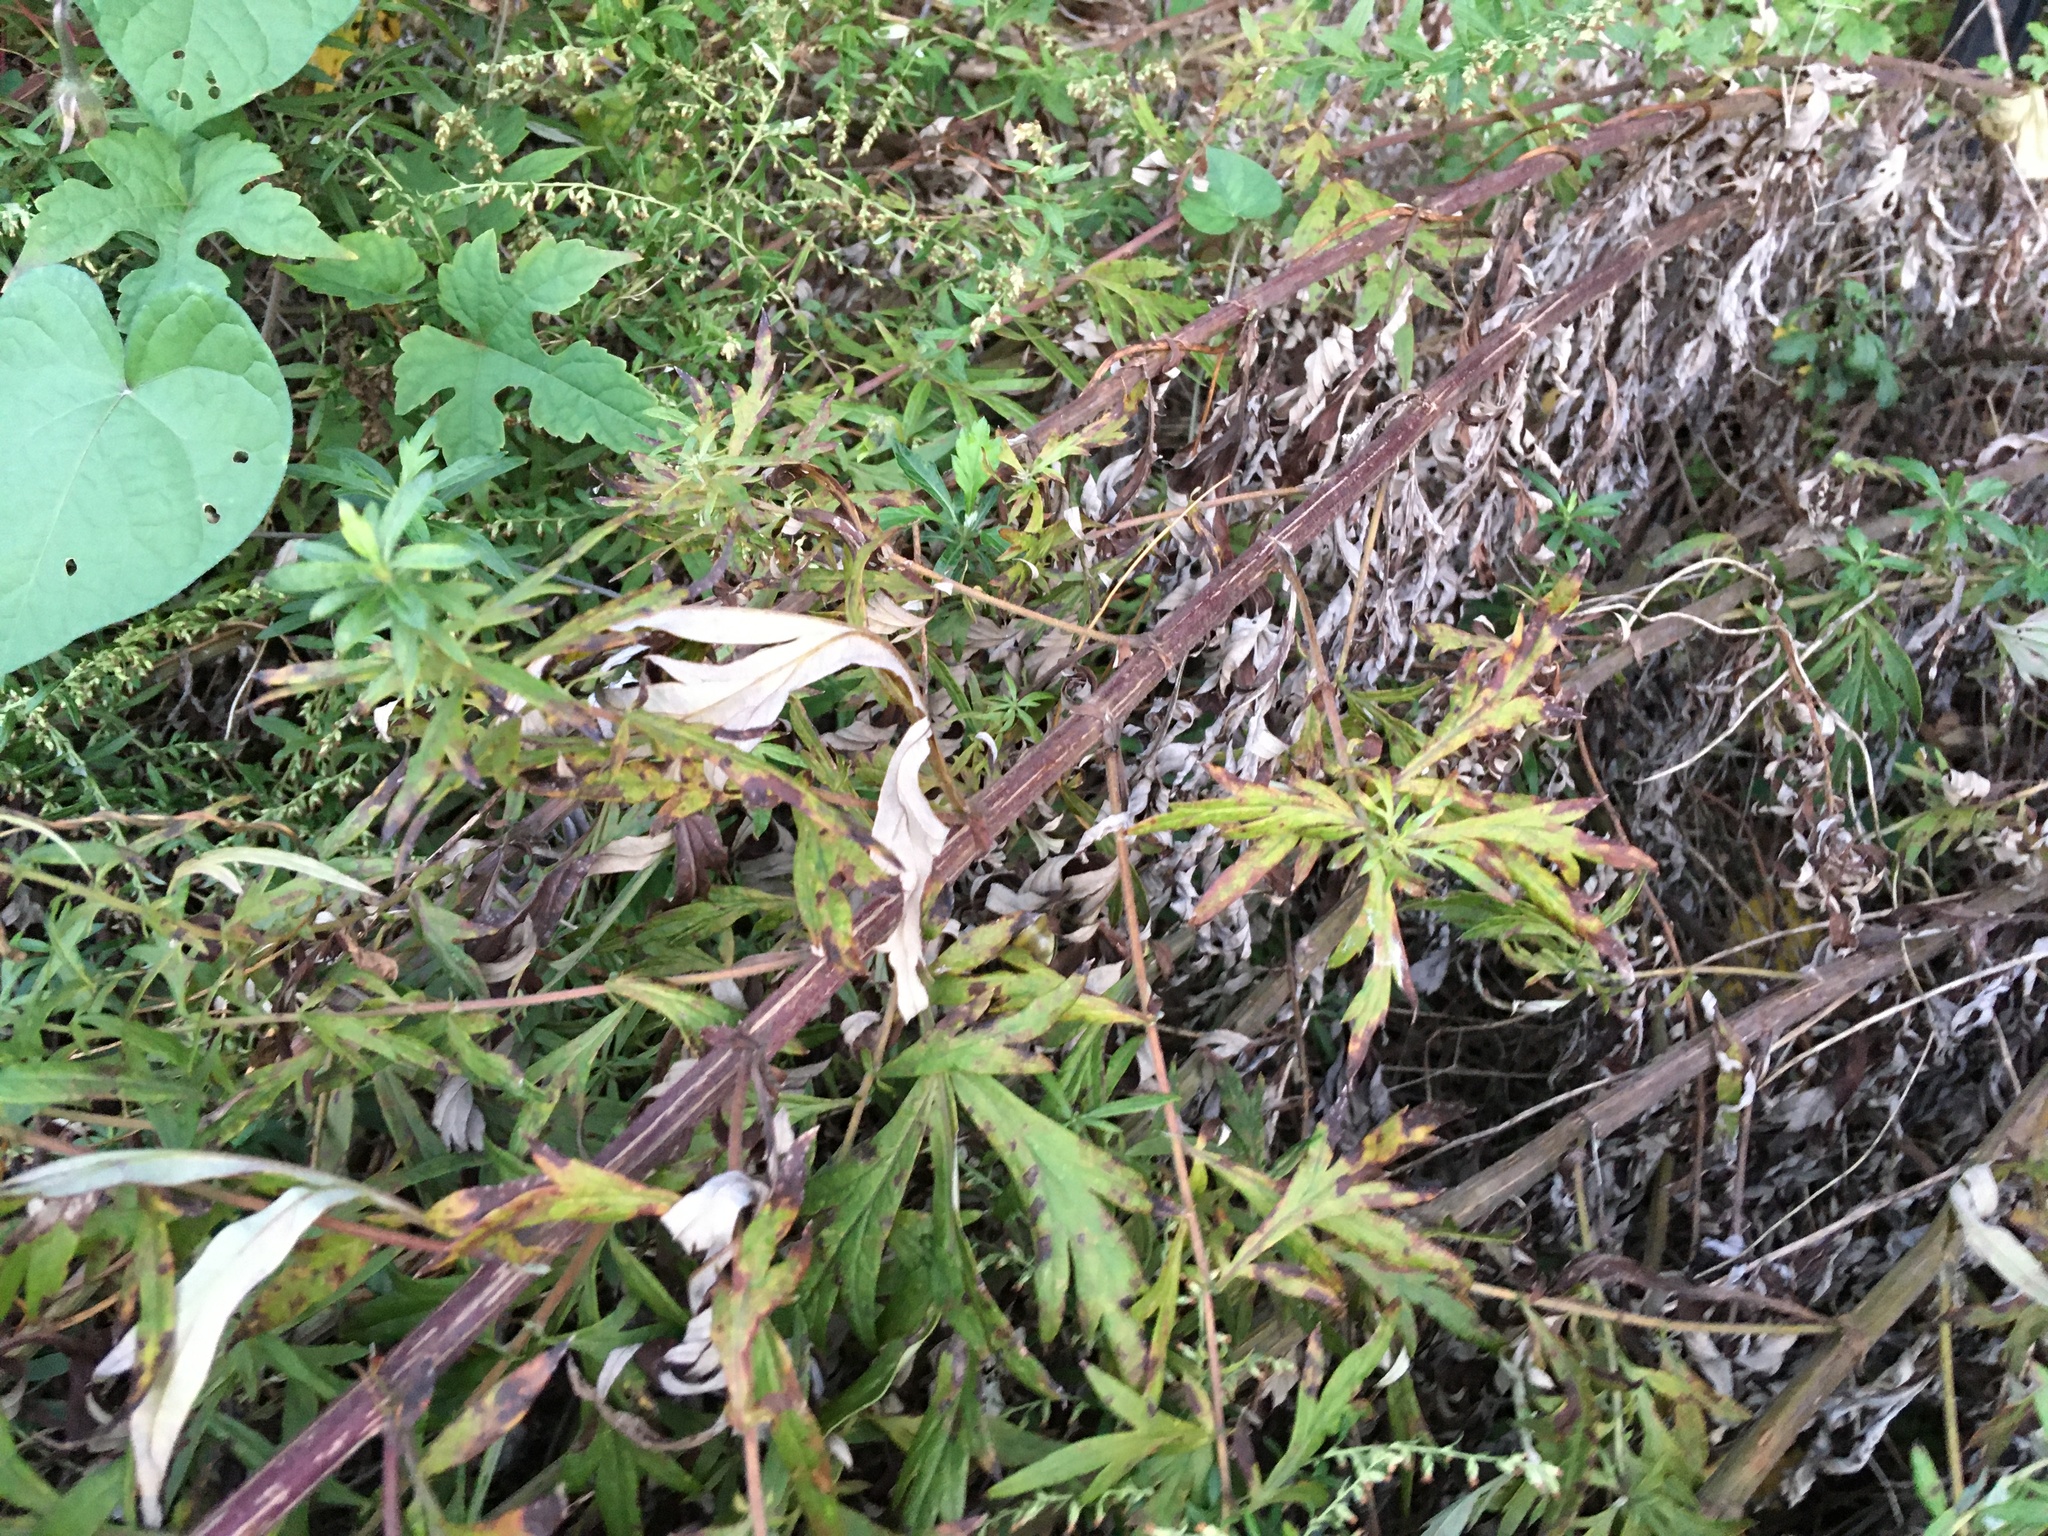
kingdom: Plantae
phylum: Tracheophyta
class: Magnoliopsida
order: Asterales
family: Asteraceae
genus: Artemisia
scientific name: Artemisia vulgaris
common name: Mugwort
